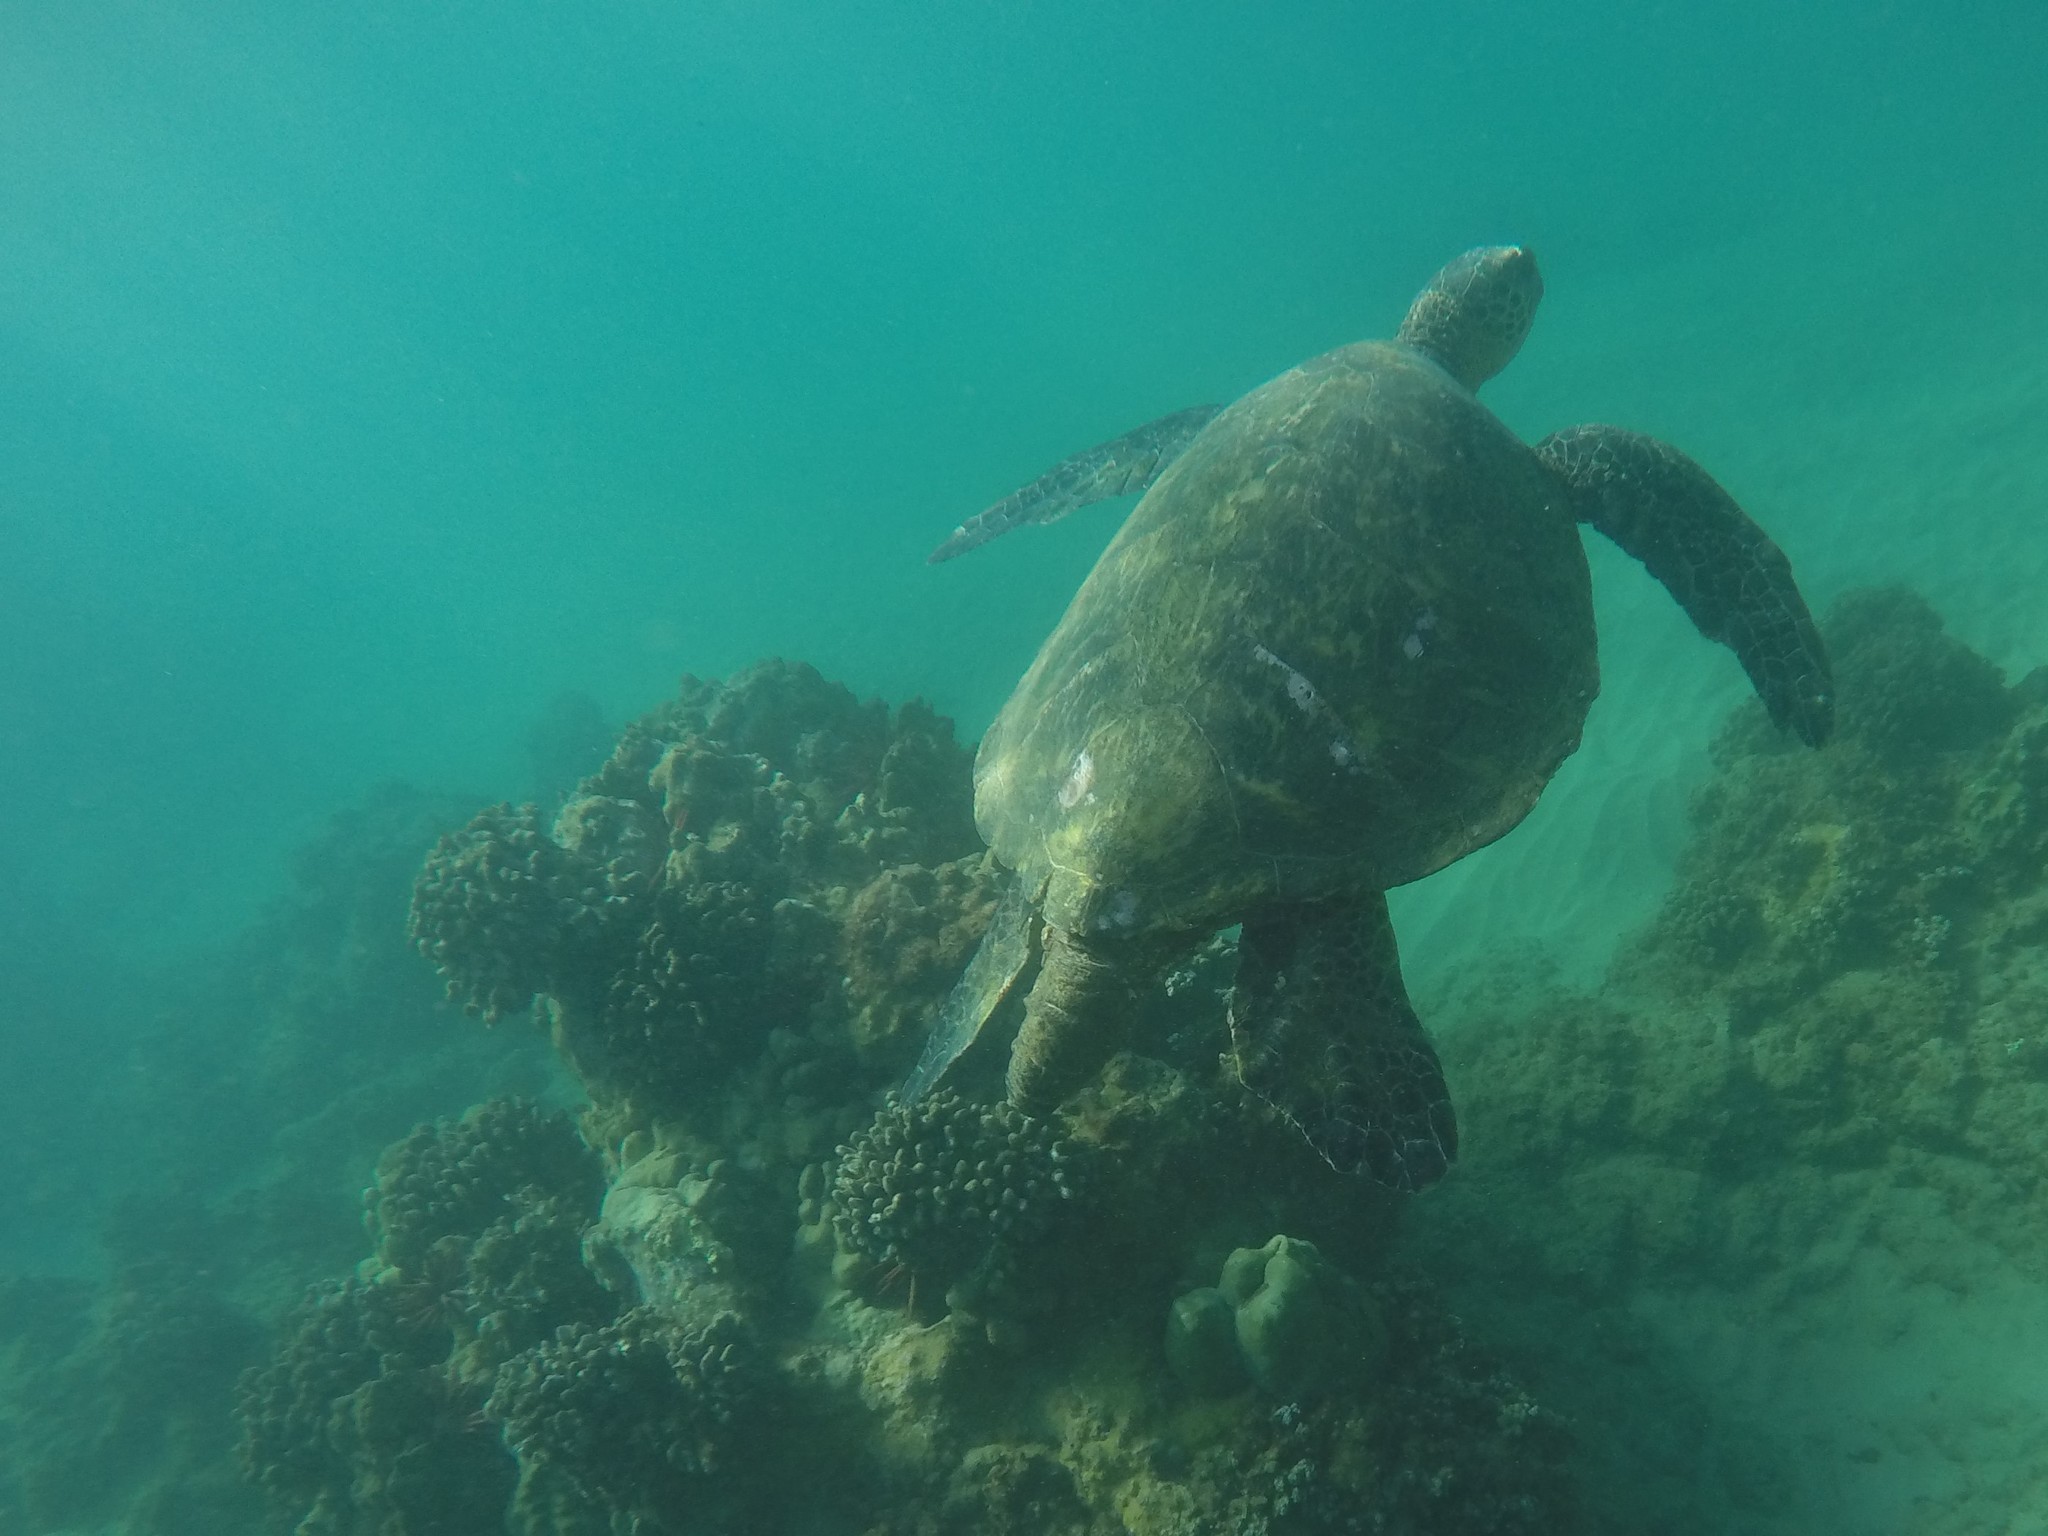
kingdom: Animalia
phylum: Chordata
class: Testudines
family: Cheloniidae
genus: Chelonia
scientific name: Chelonia mydas
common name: Green turtle
